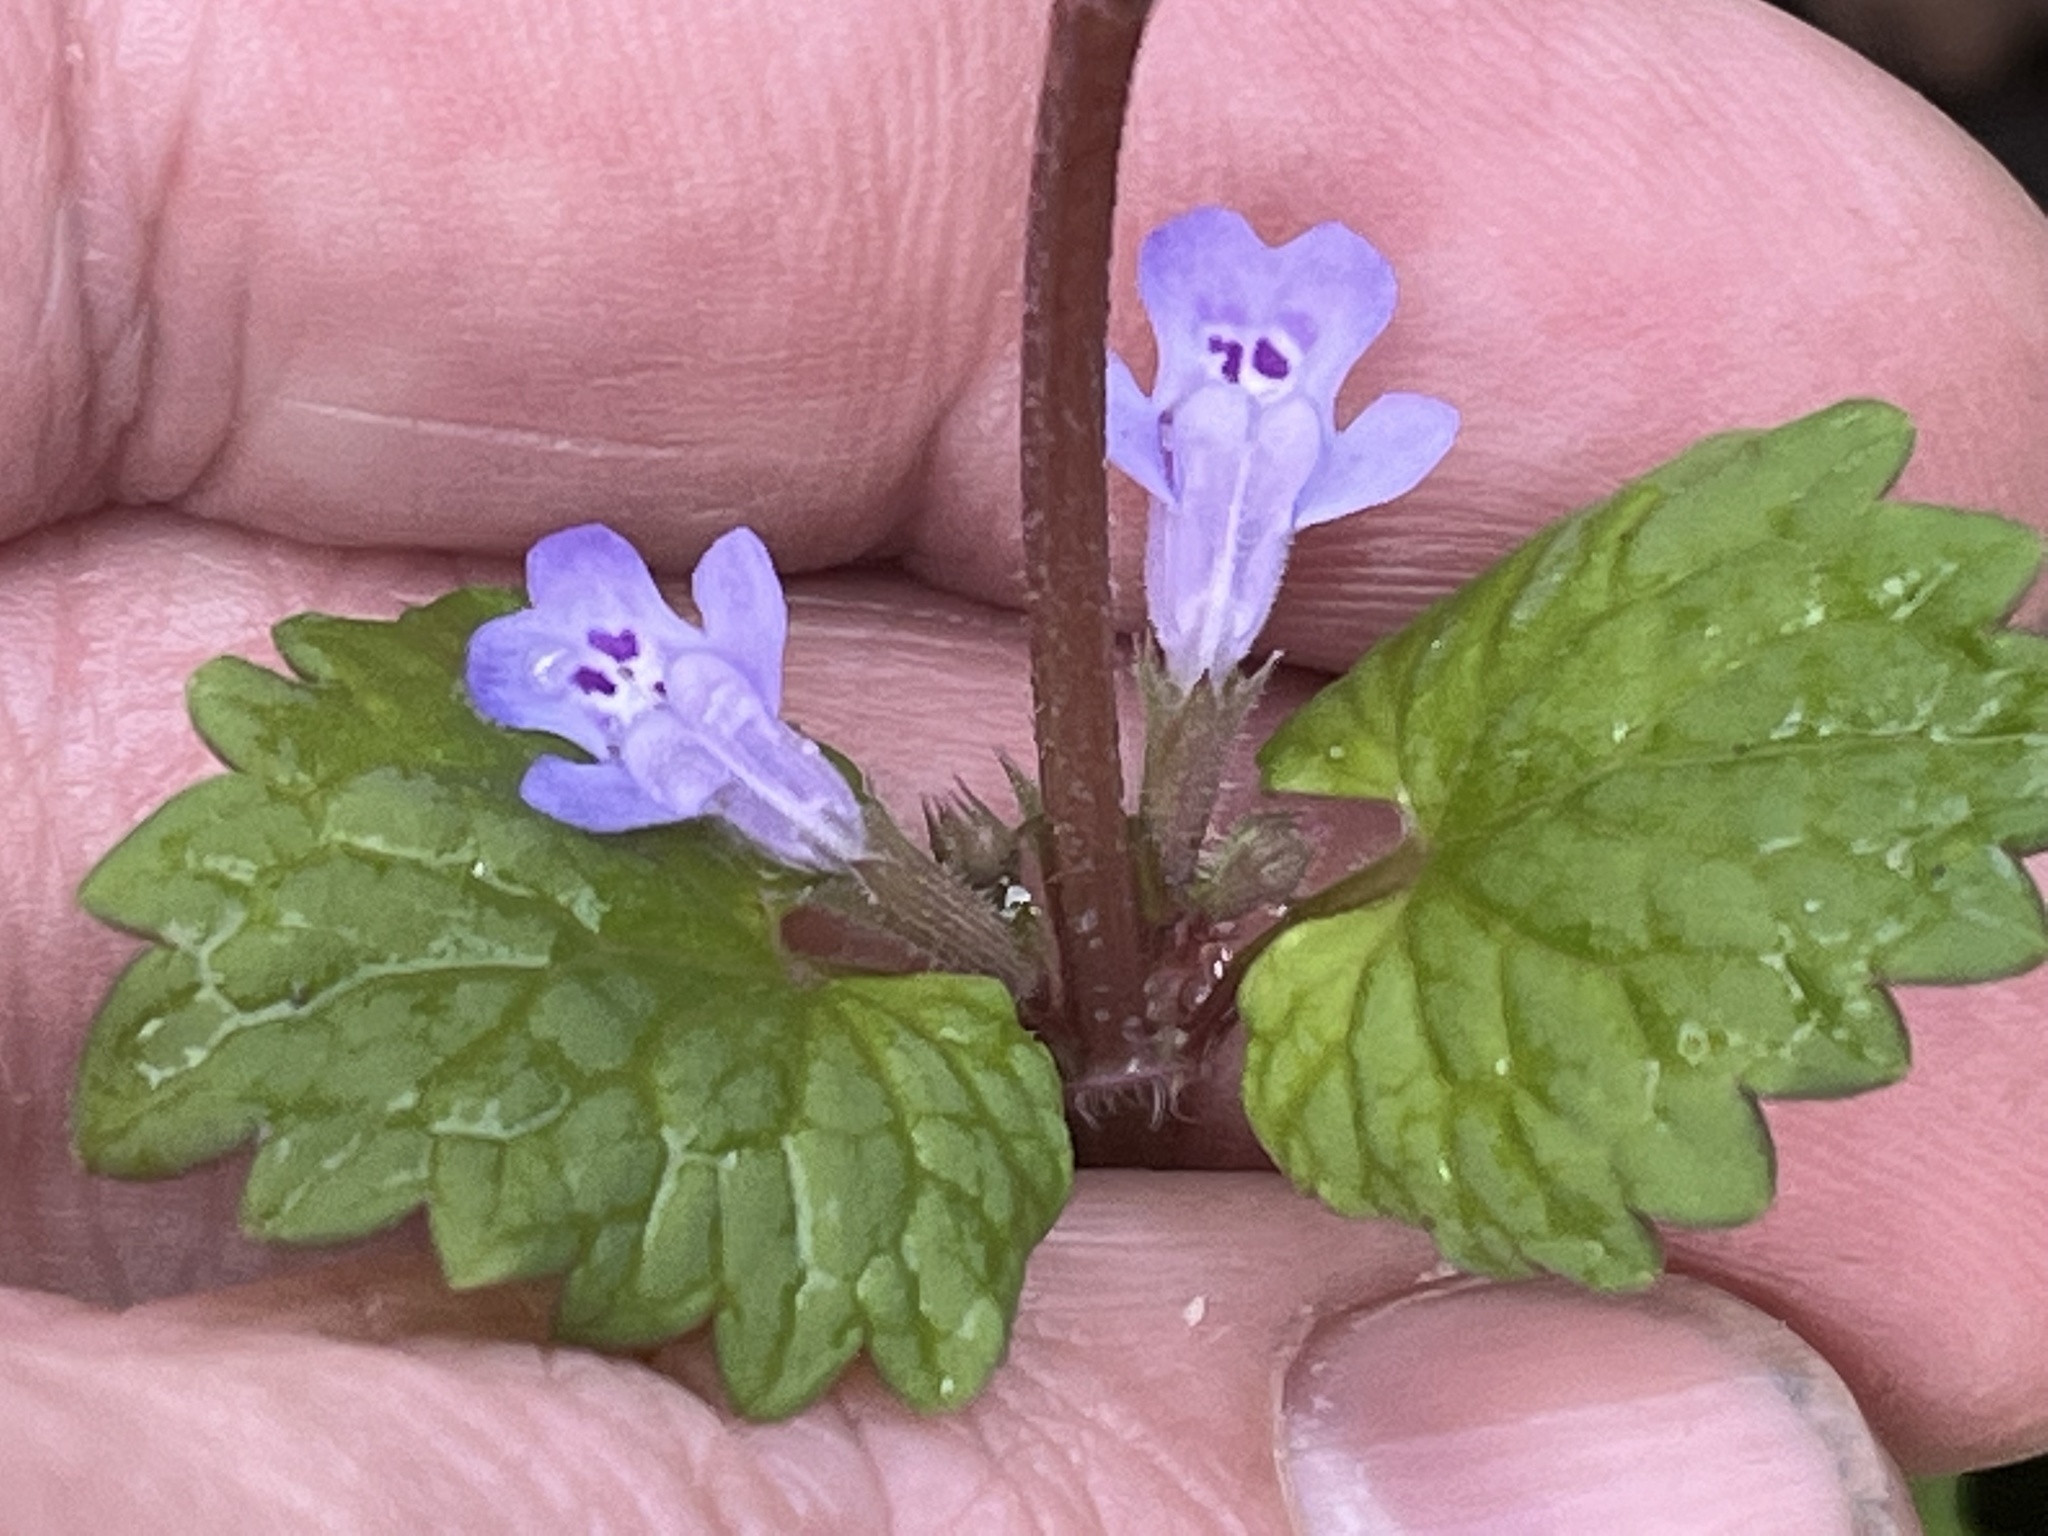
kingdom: Plantae
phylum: Tracheophyta
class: Magnoliopsida
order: Lamiales
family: Lamiaceae
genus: Glechoma
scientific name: Glechoma hederacea
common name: Ground ivy
